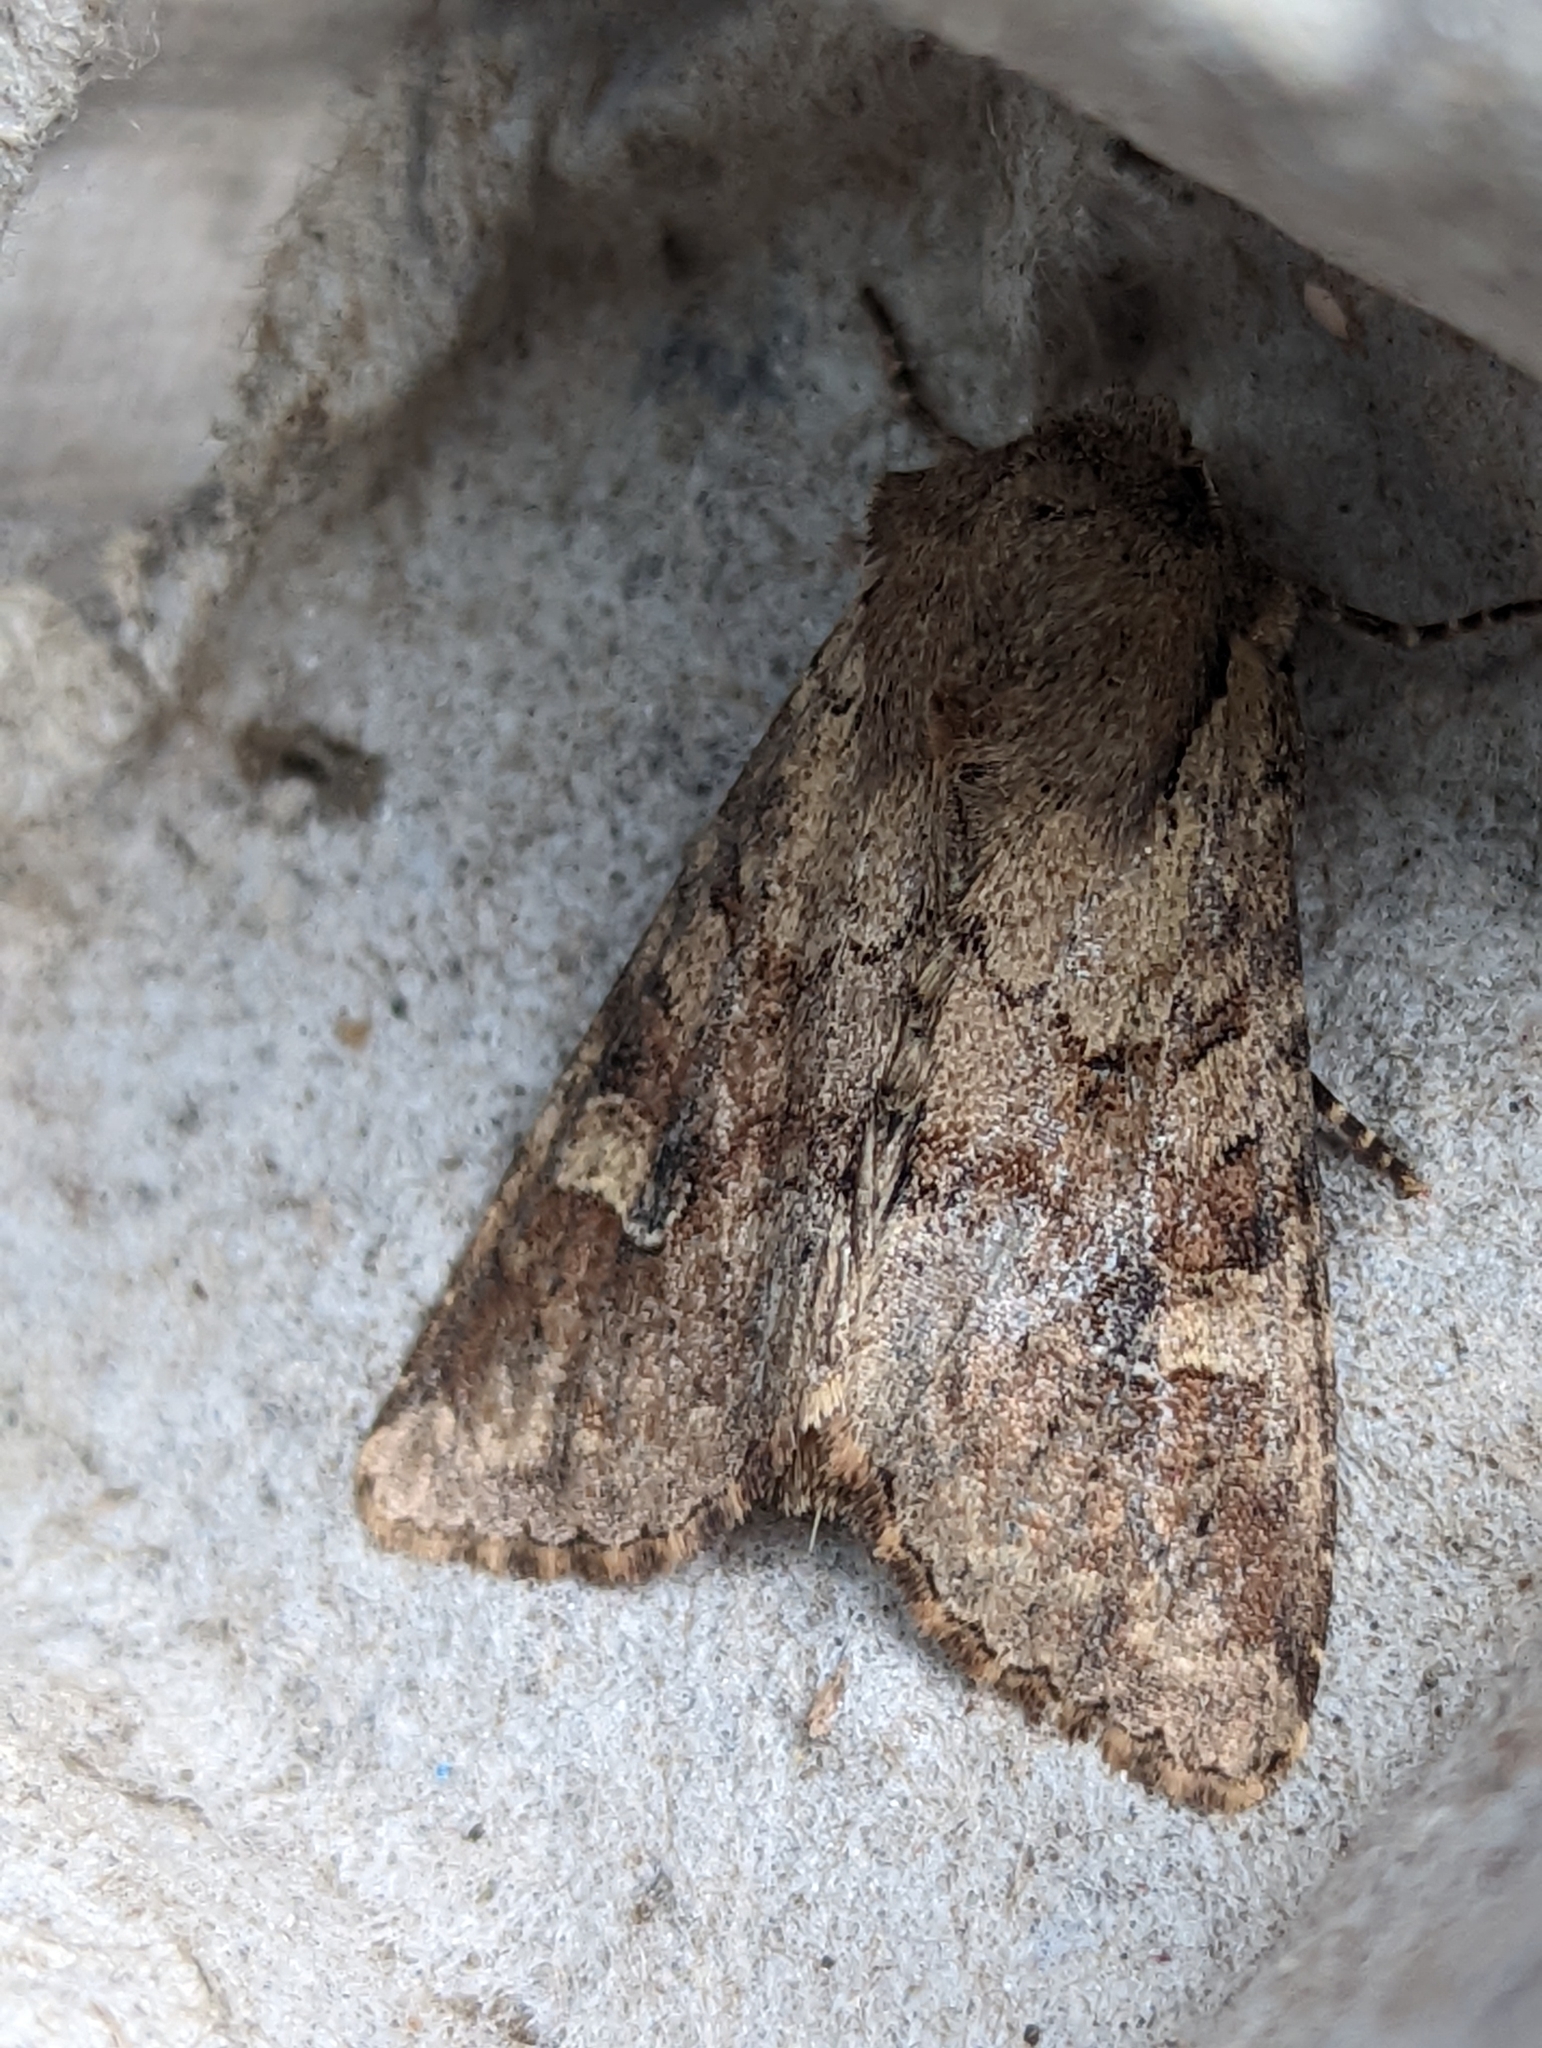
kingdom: Animalia
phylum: Arthropoda
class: Insecta
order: Lepidoptera
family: Noctuidae
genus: Apamea
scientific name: Apamea sordens
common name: Rustic shoulder-knot
